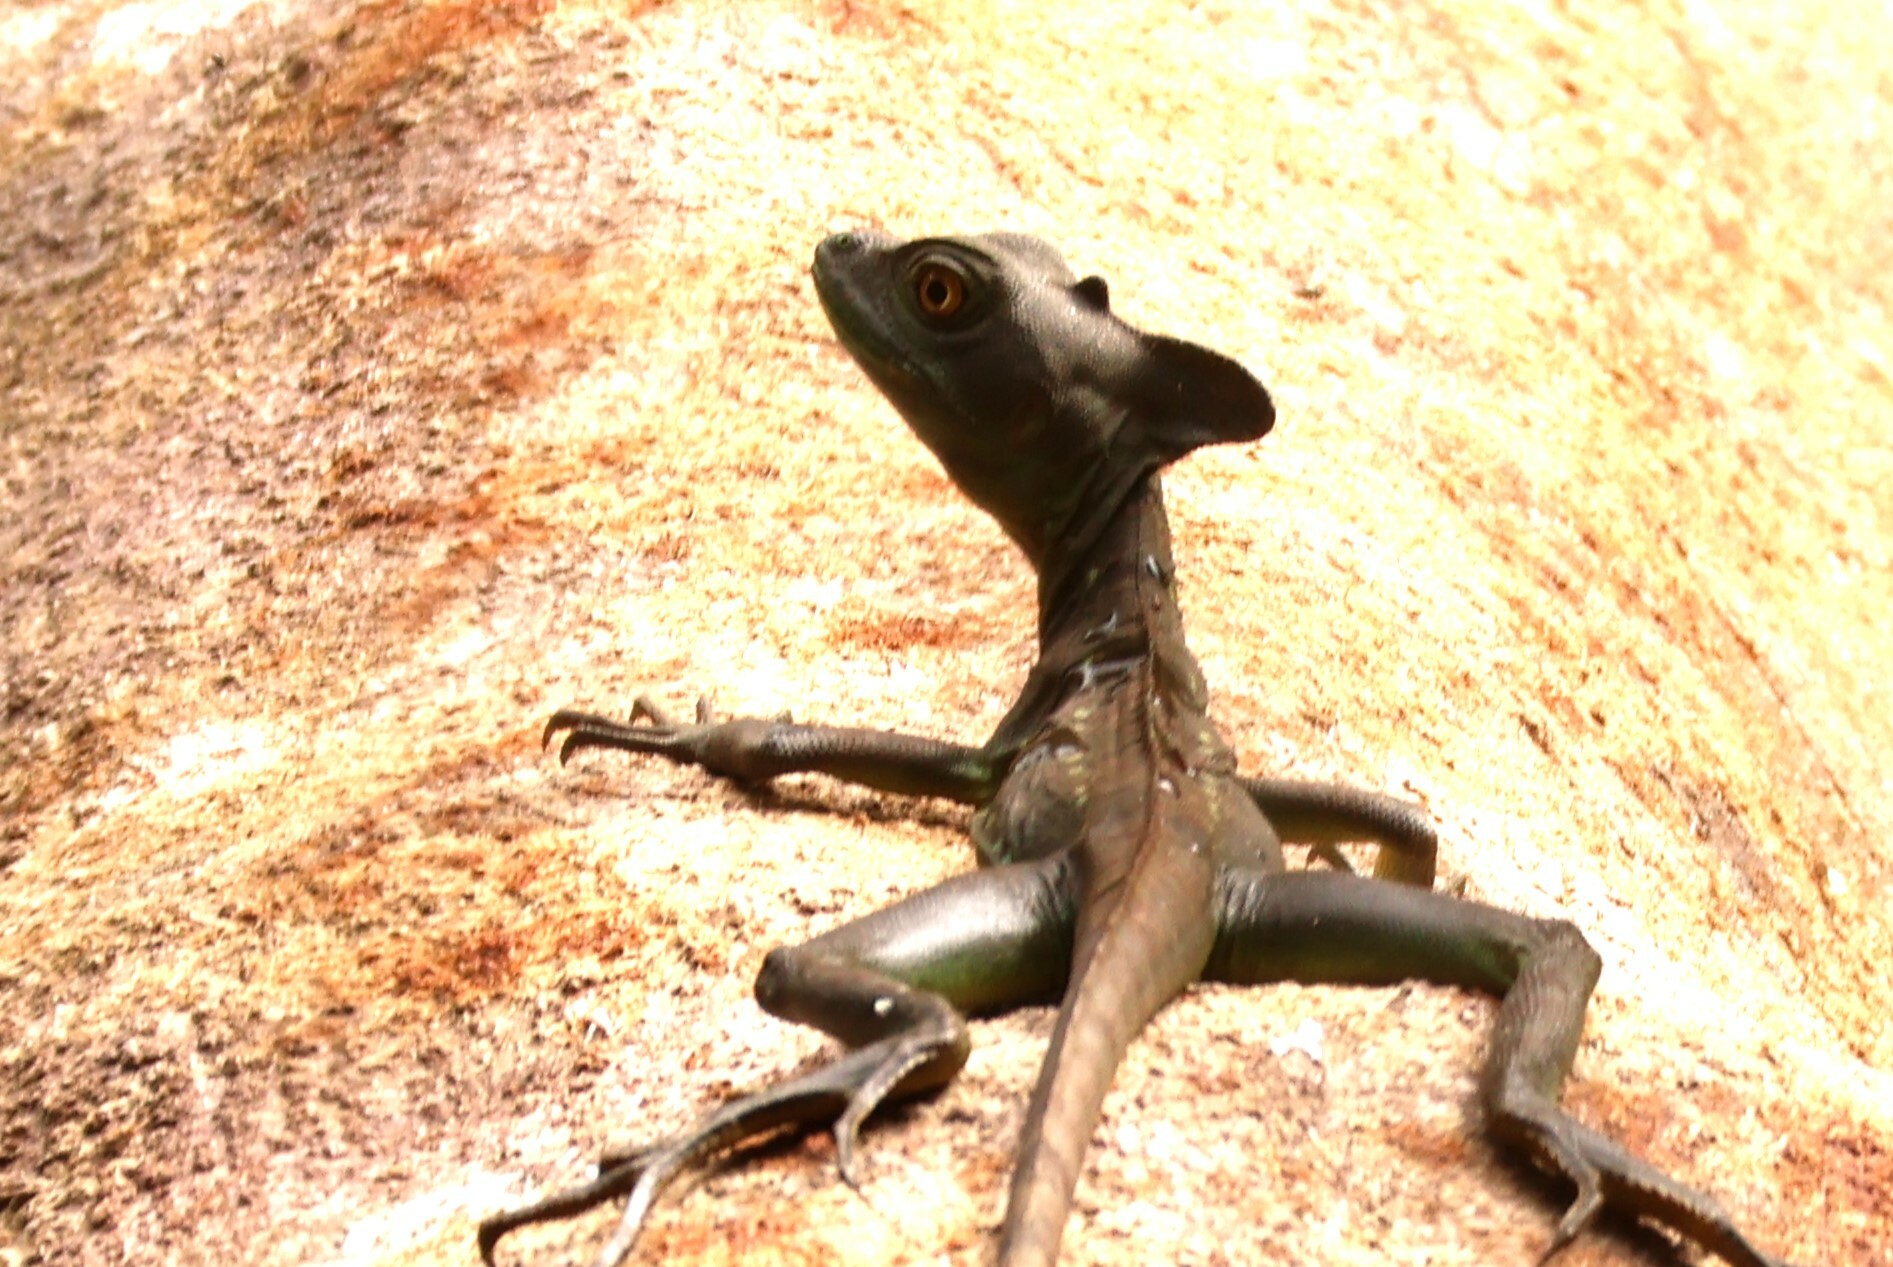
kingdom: Animalia
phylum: Chordata
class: Squamata
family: Corytophanidae
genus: Basiliscus
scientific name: Basiliscus plumifrons
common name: Green basilisk
